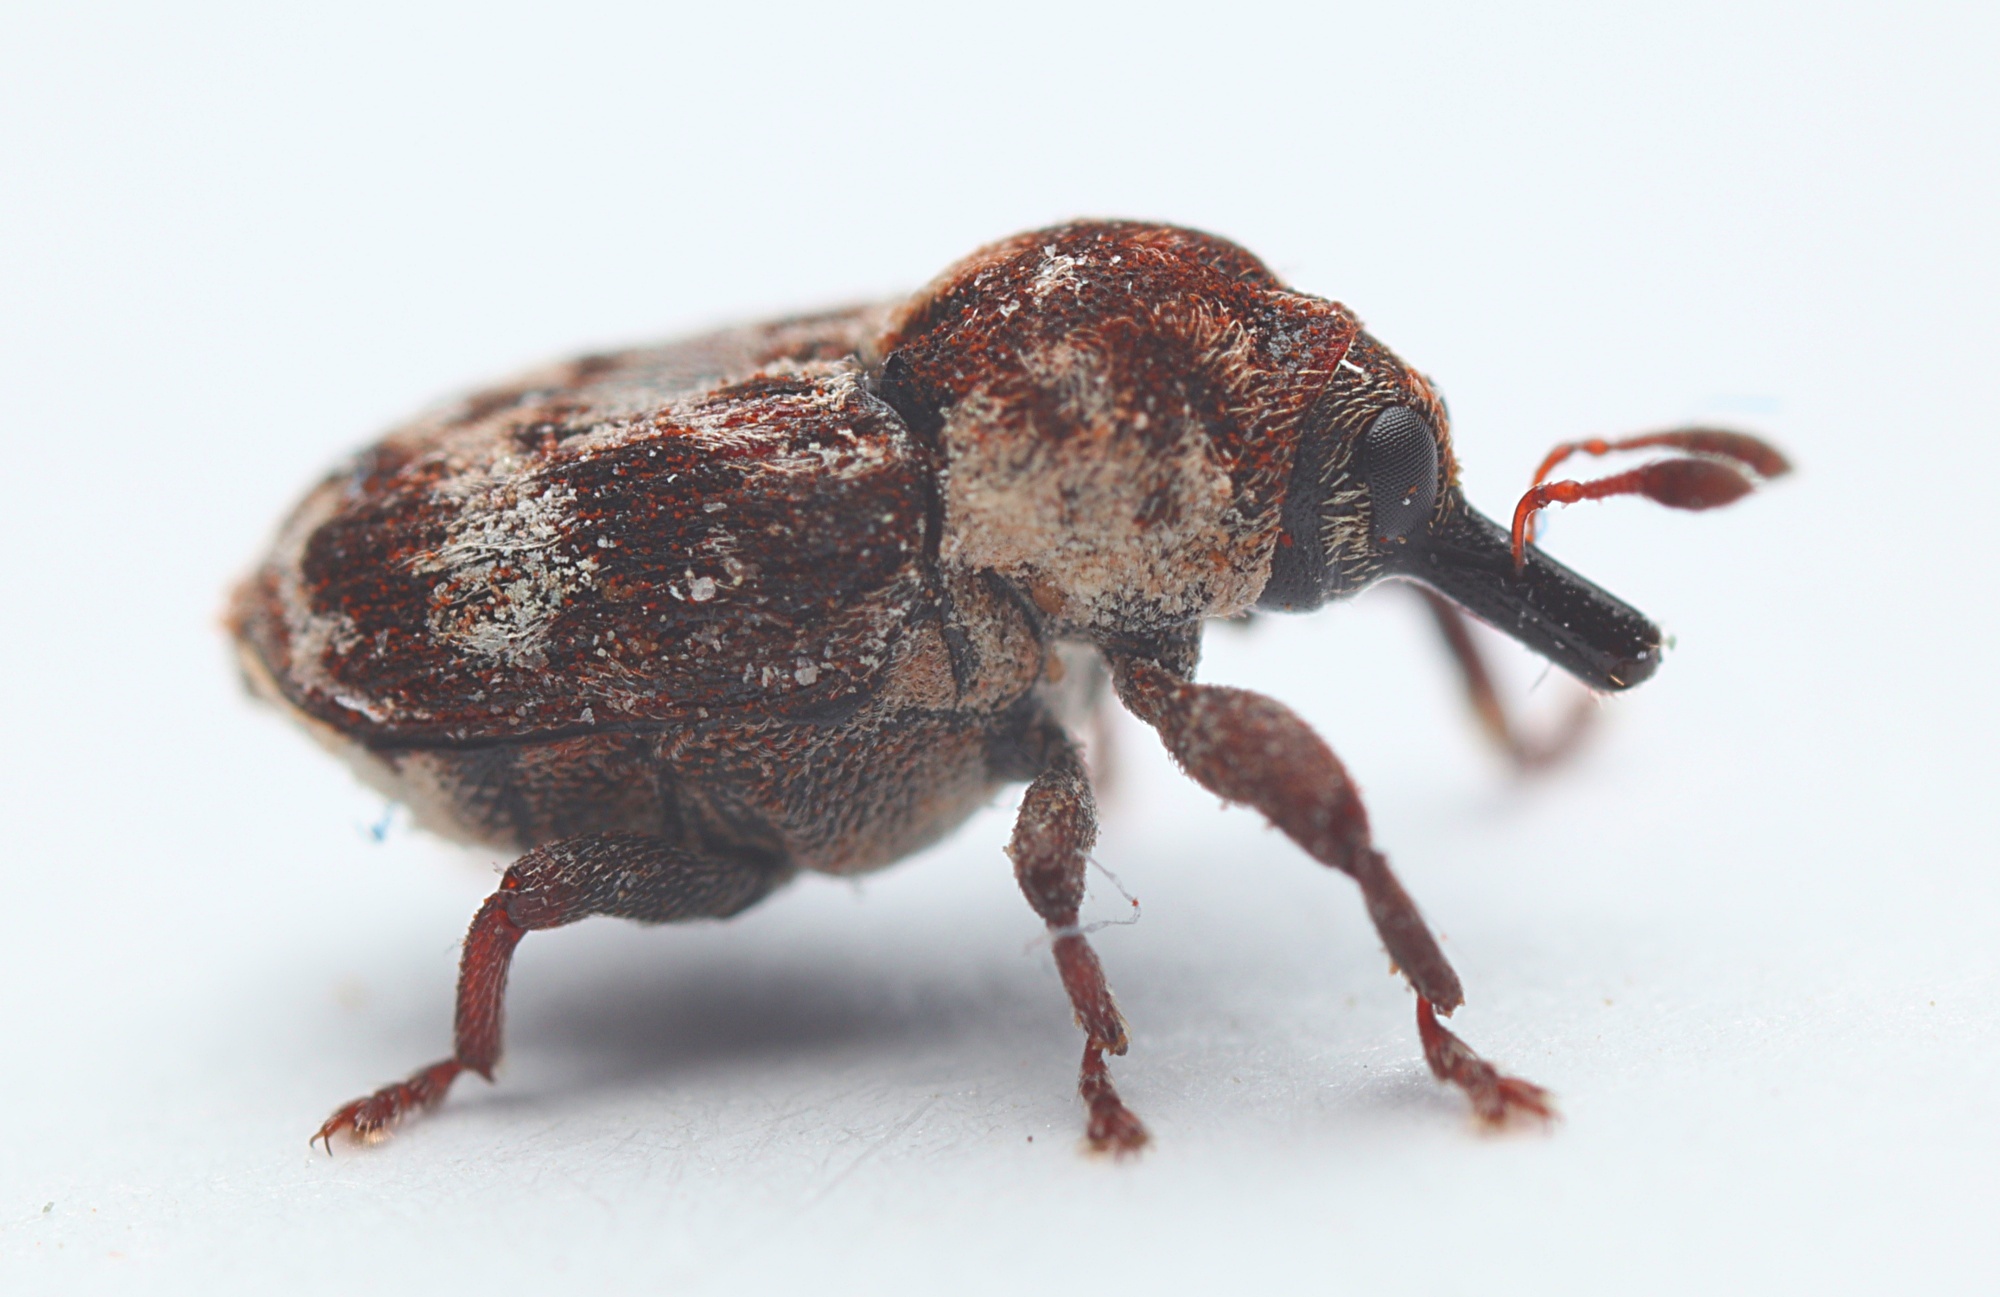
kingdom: Animalia
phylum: Arthropoda
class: Insecta
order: Coleoptera
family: Curculionidae
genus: Neolaemosaccus
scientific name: Neolaemosaccus narinus
